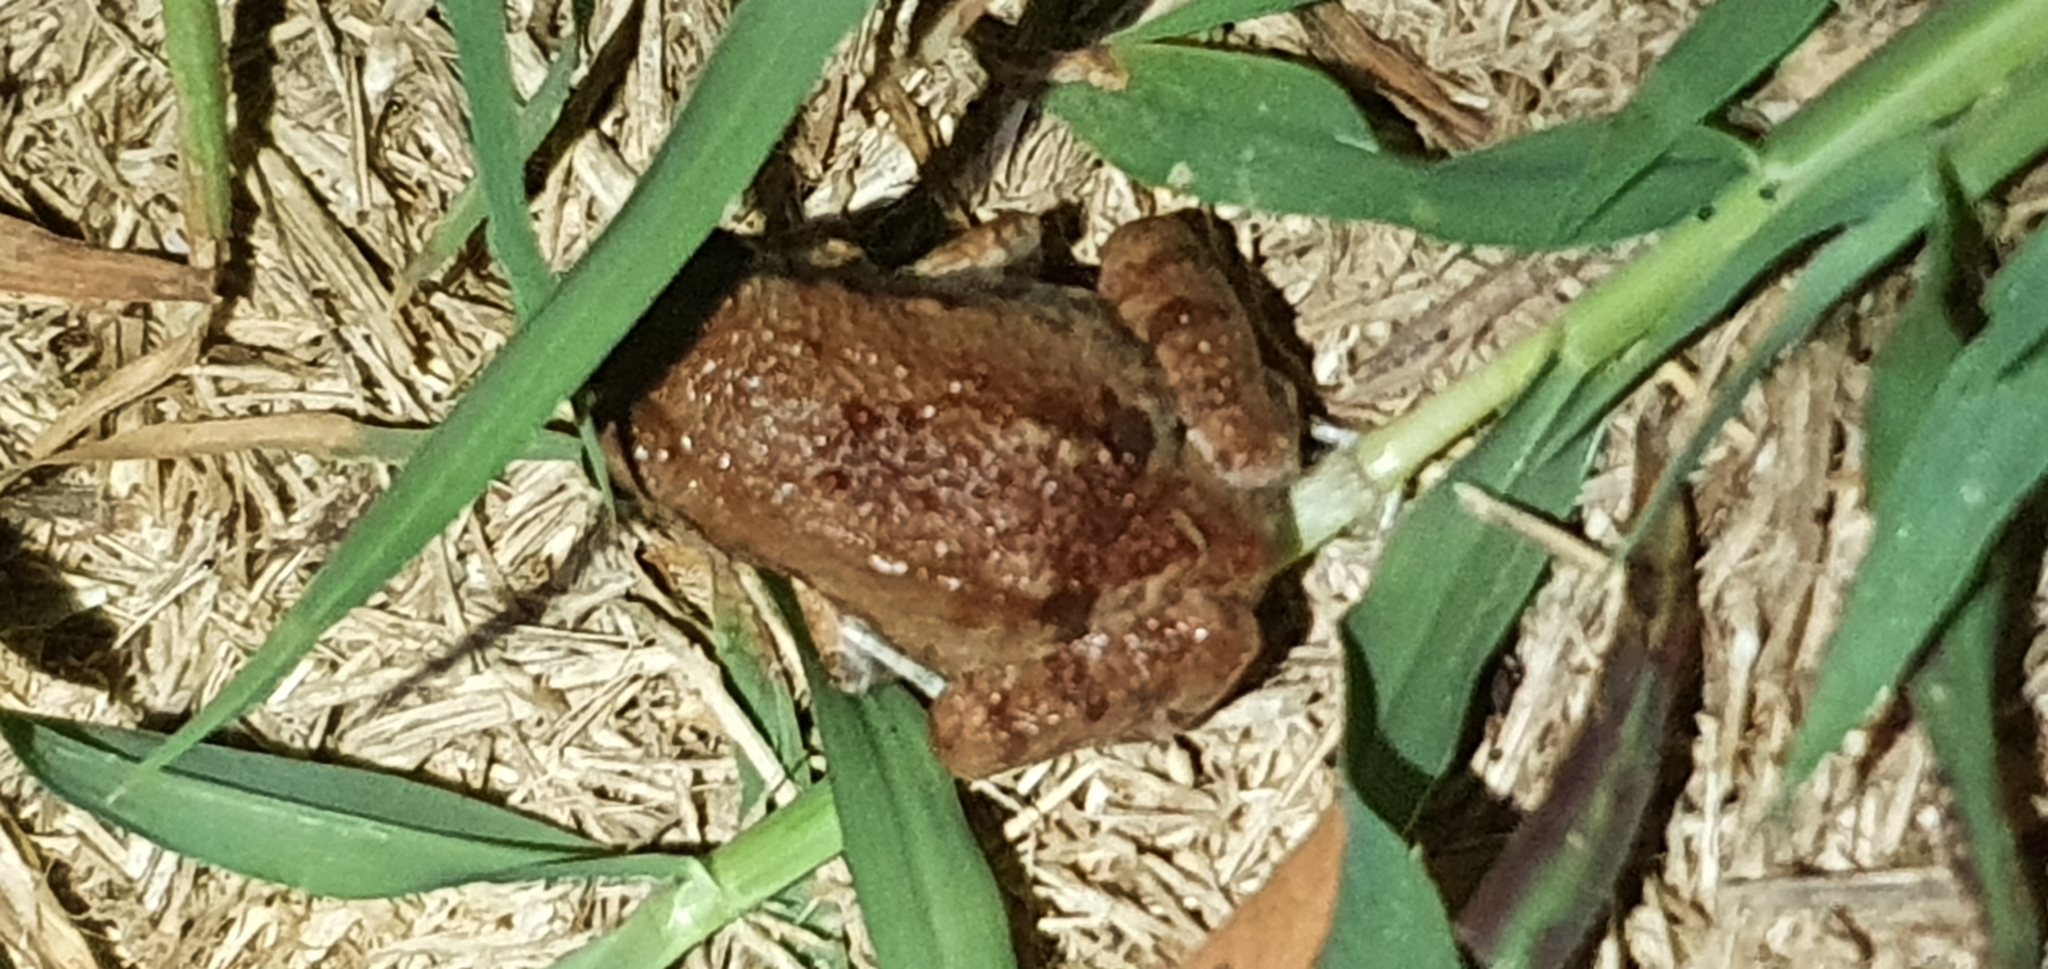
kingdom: Animalia
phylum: Chordata
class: Amphibia
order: Anura
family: Limnodynastidae
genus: Platyplectrum
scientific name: Platyplectrum ornatum
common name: Ornate burrowing frog
